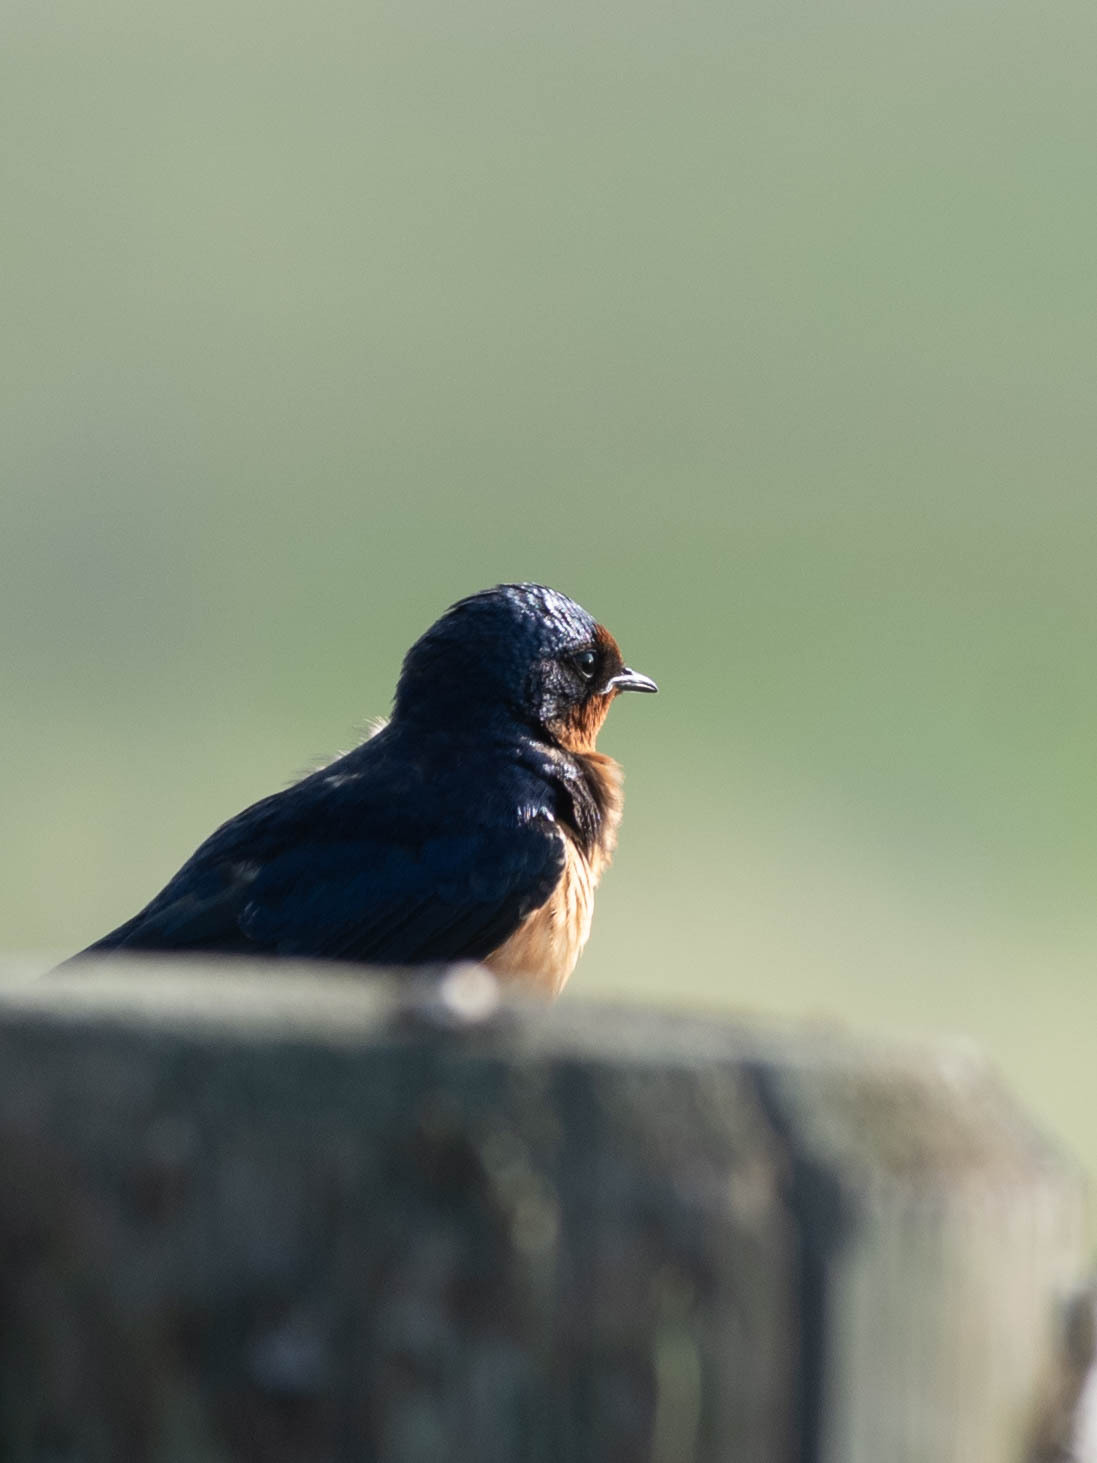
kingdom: Animalia
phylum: Chordata
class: Aves
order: Passeriformes
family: Hirundinidae
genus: Hirundo
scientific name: Hirundo rustica
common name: Barn swallow
